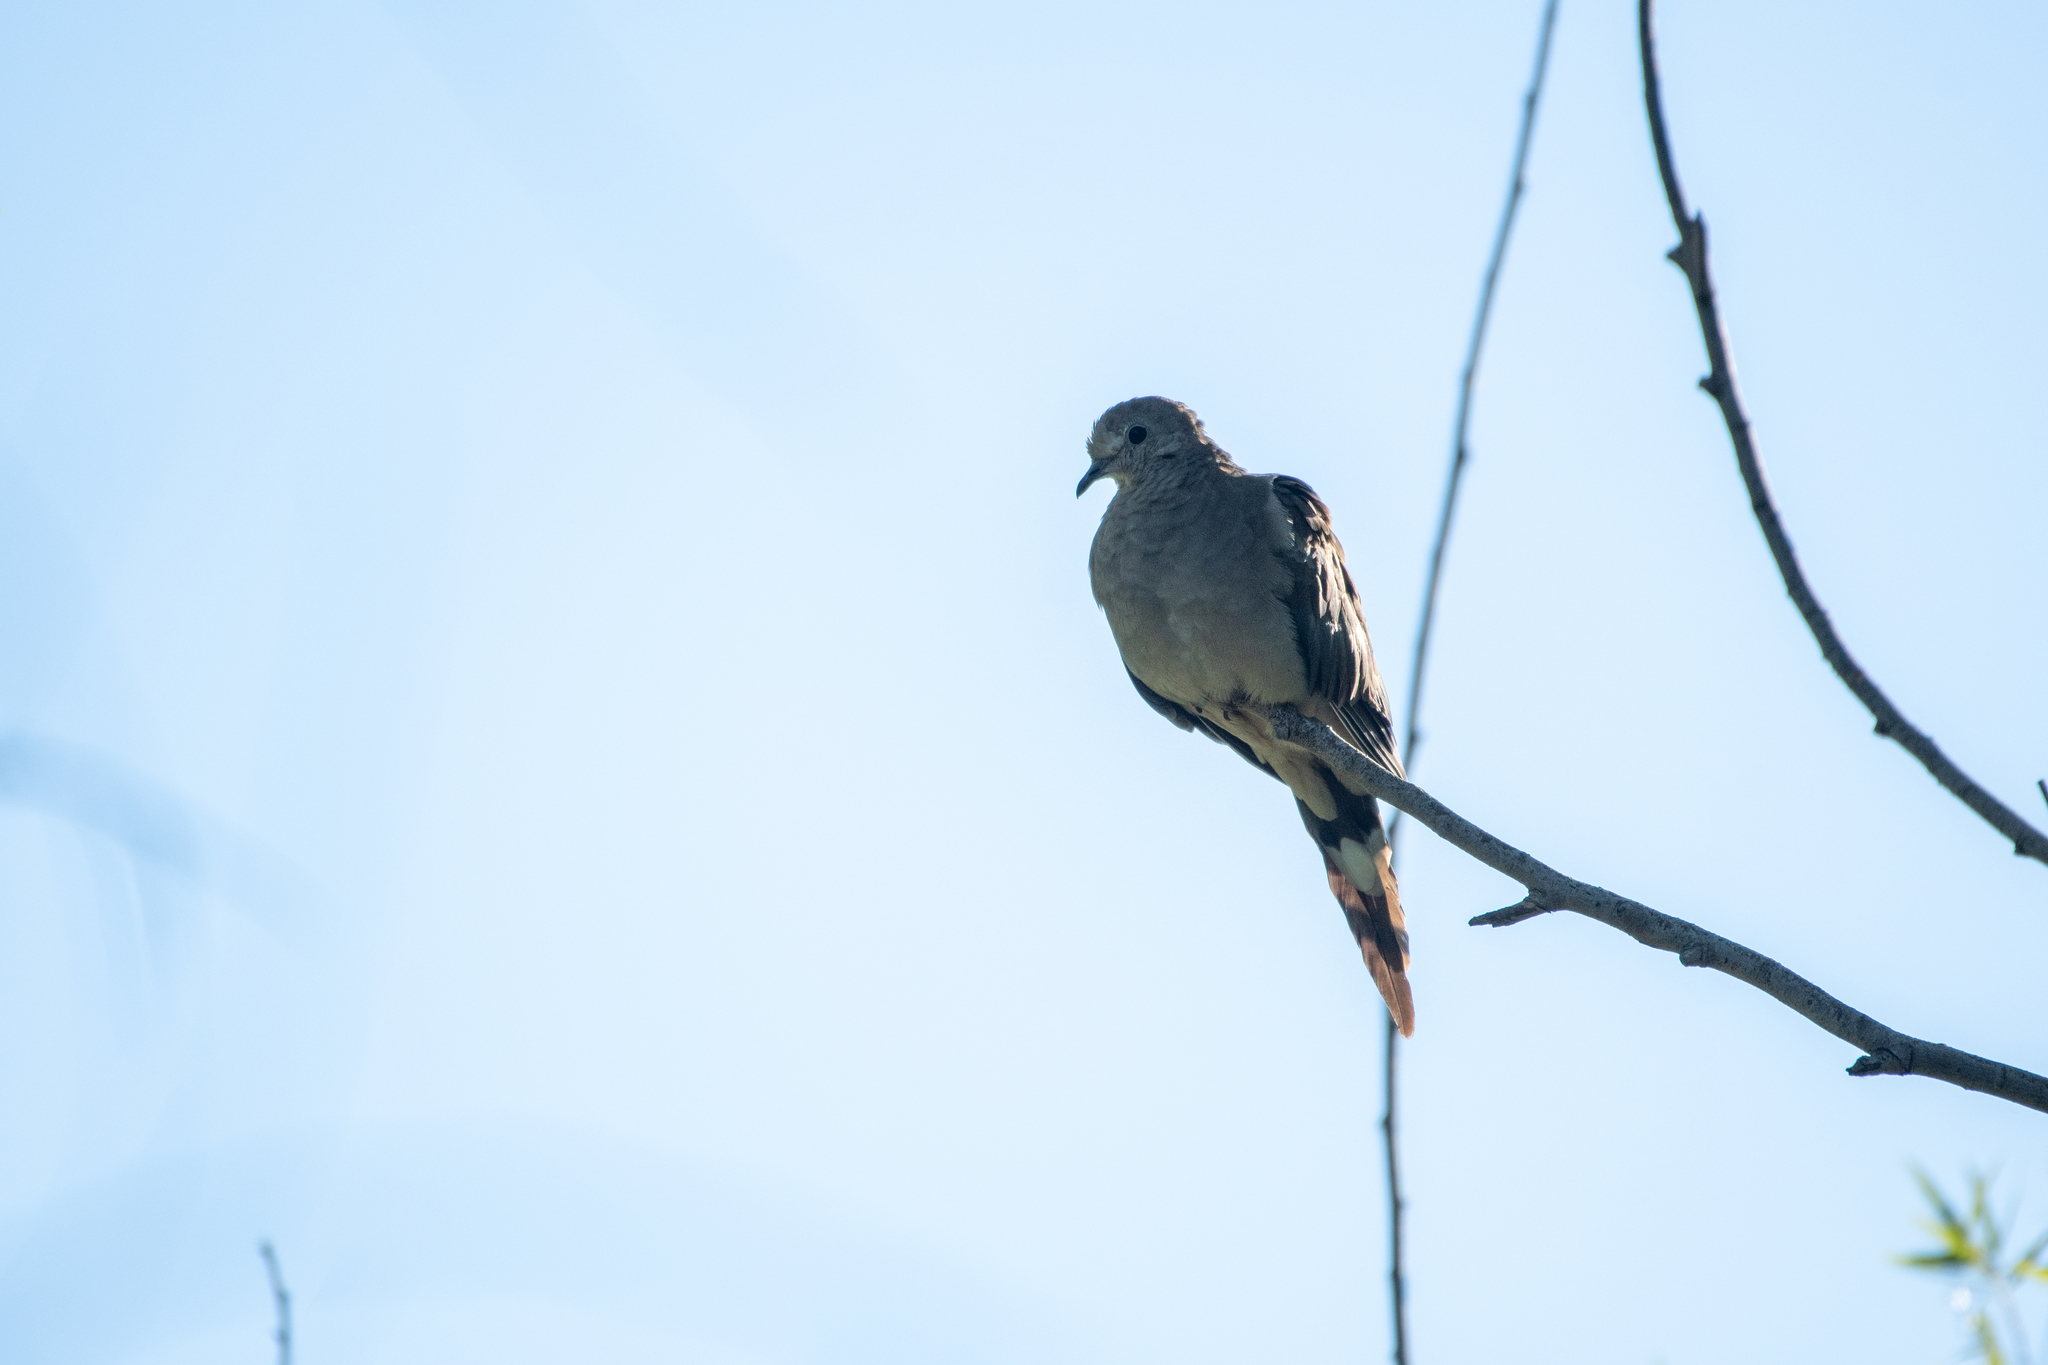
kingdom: Animalia
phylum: Chordata
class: Aves
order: Columbiformes
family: Columbidae
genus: Zenaida
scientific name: Zenaida macroura
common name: Mourning dove
